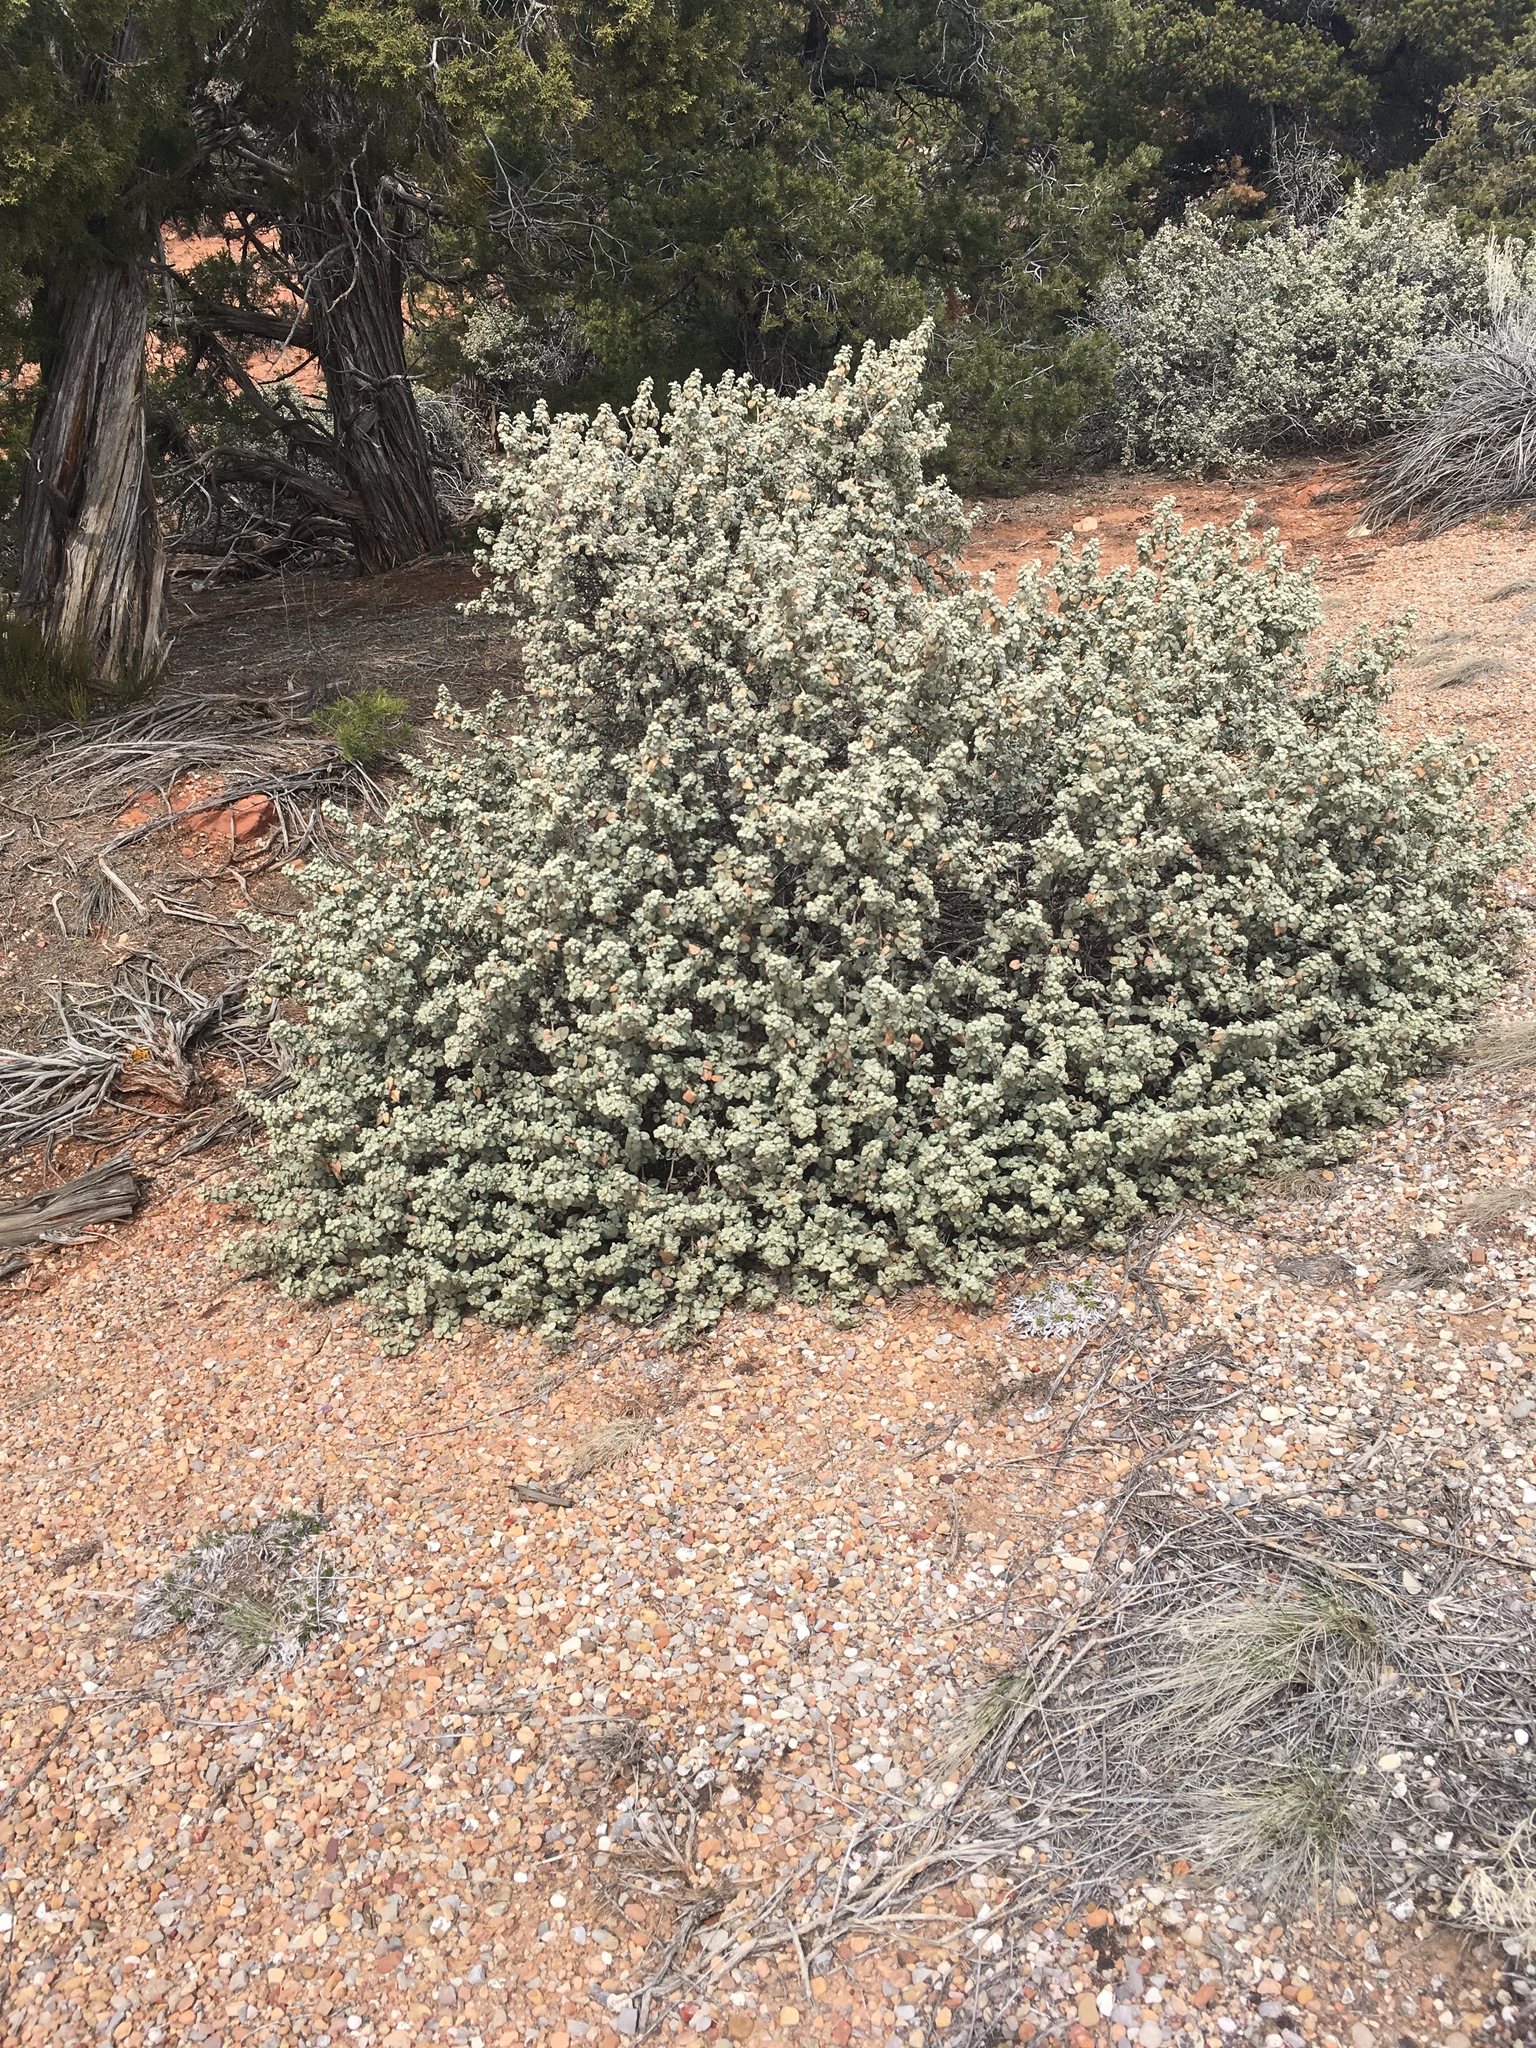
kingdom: Plantae
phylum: Tracheophyta
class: Magnoliopsida
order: Rosales
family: Elaeagnaceae
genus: Shepherdia
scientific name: Shepherdia rotundifolia
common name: Silverscale
